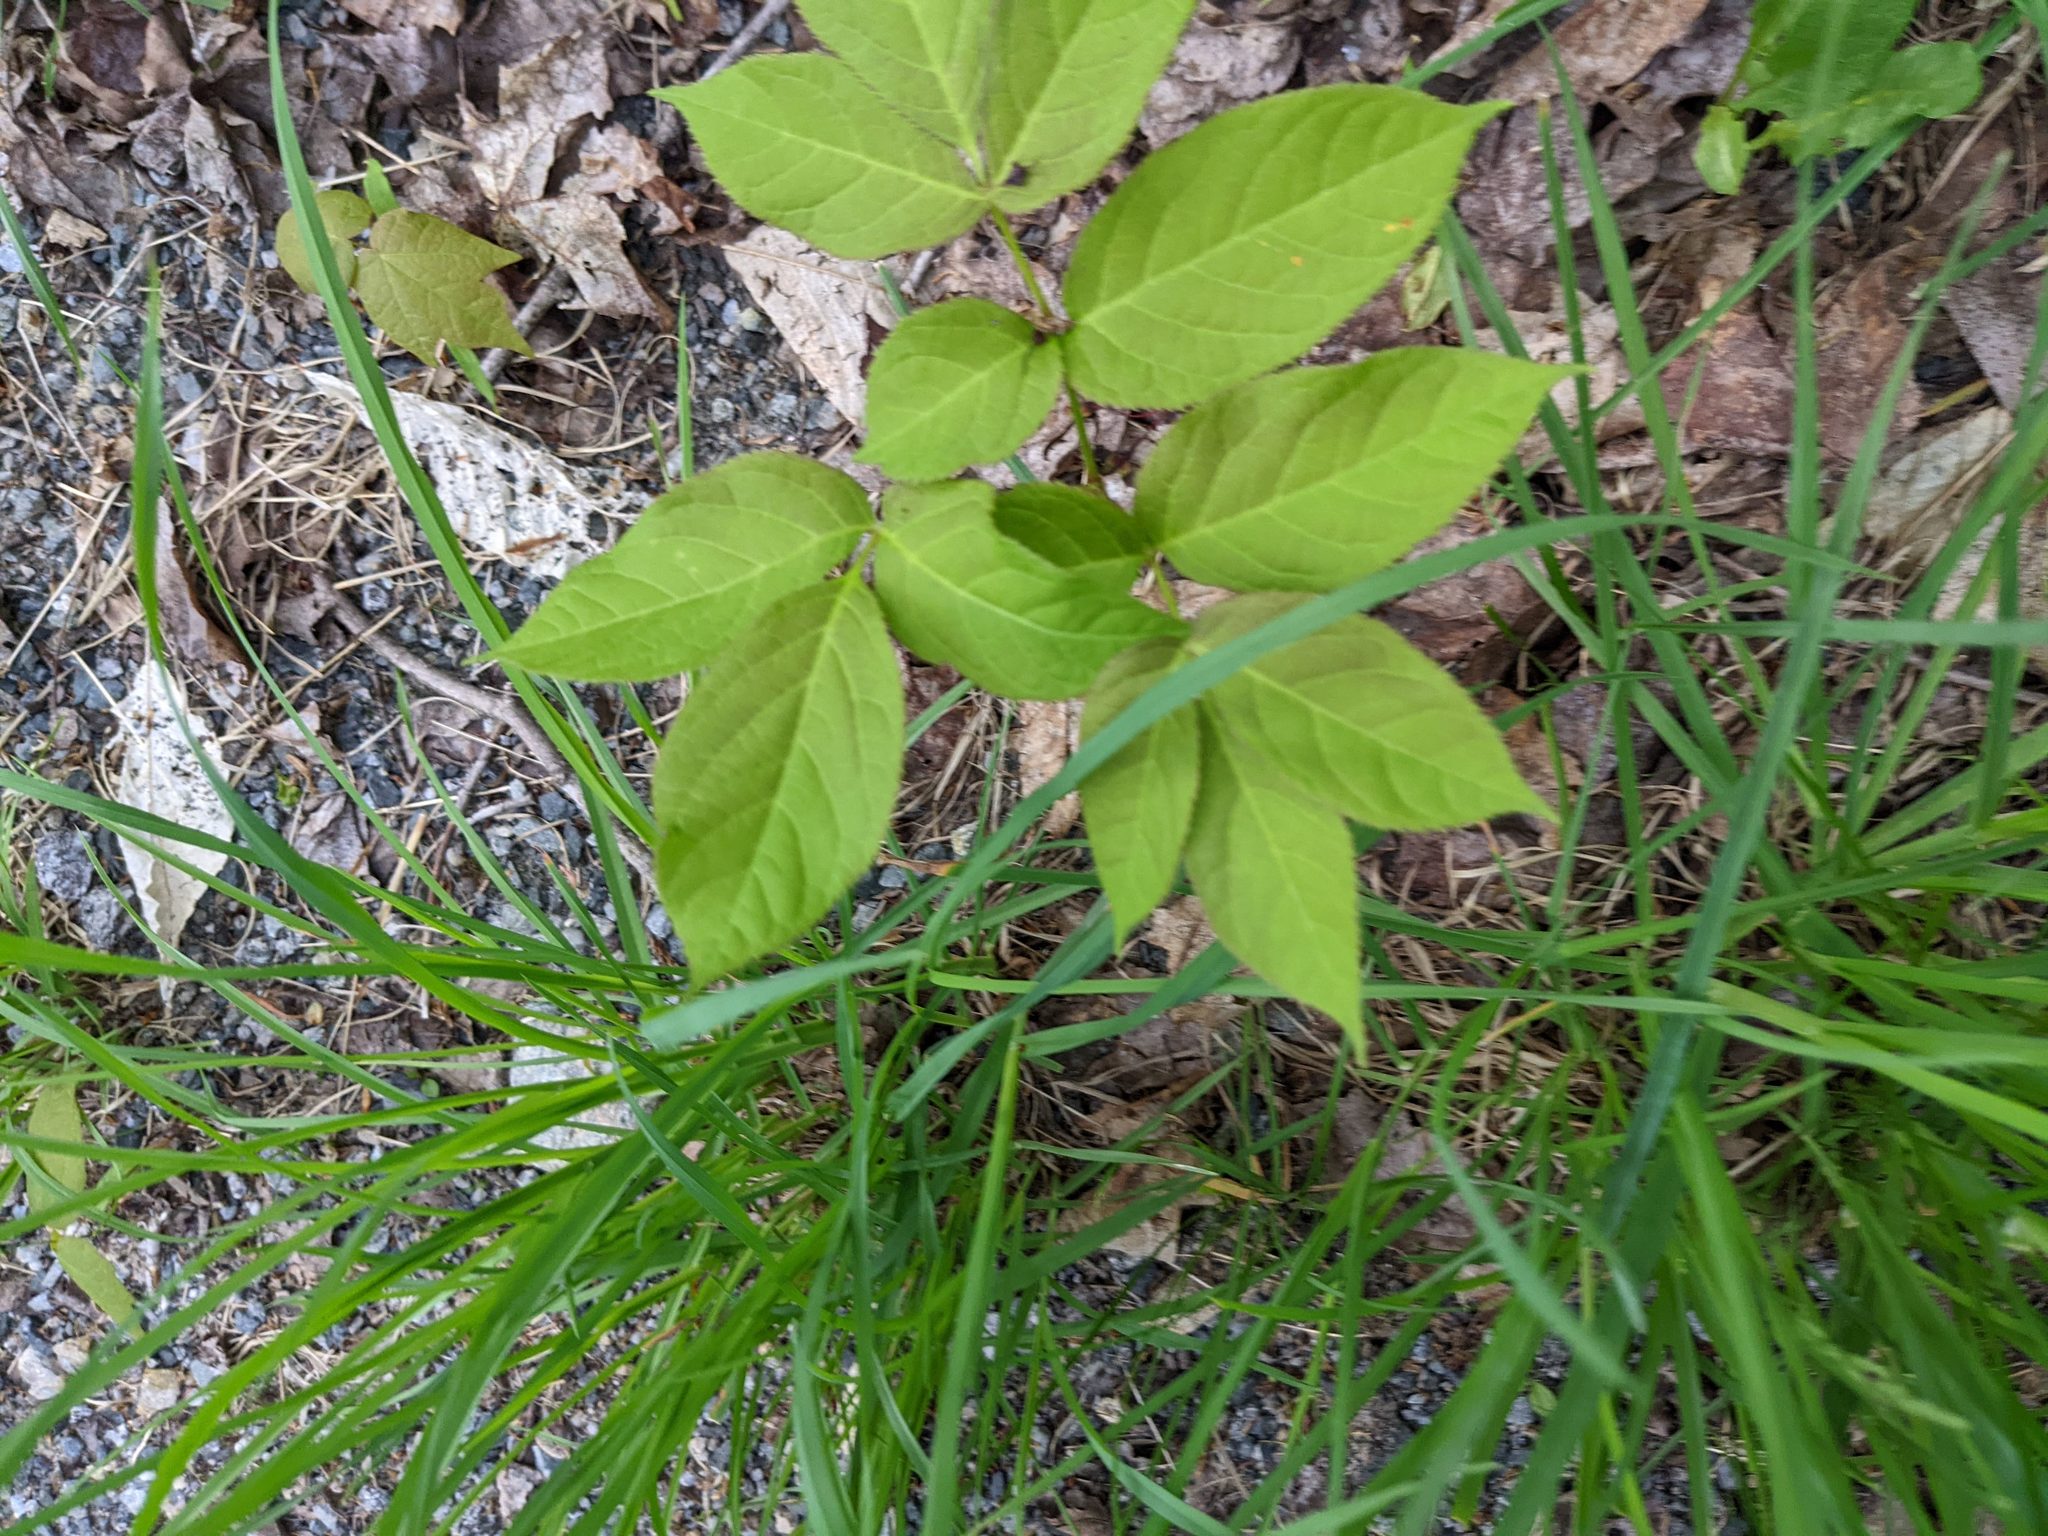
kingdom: Plantae
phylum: Tracheophyta
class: Magnoliopsida
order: Apiales
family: Araliaceae
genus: Aralia
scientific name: Aralia nudicaulis
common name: Wild sarsaparilla
